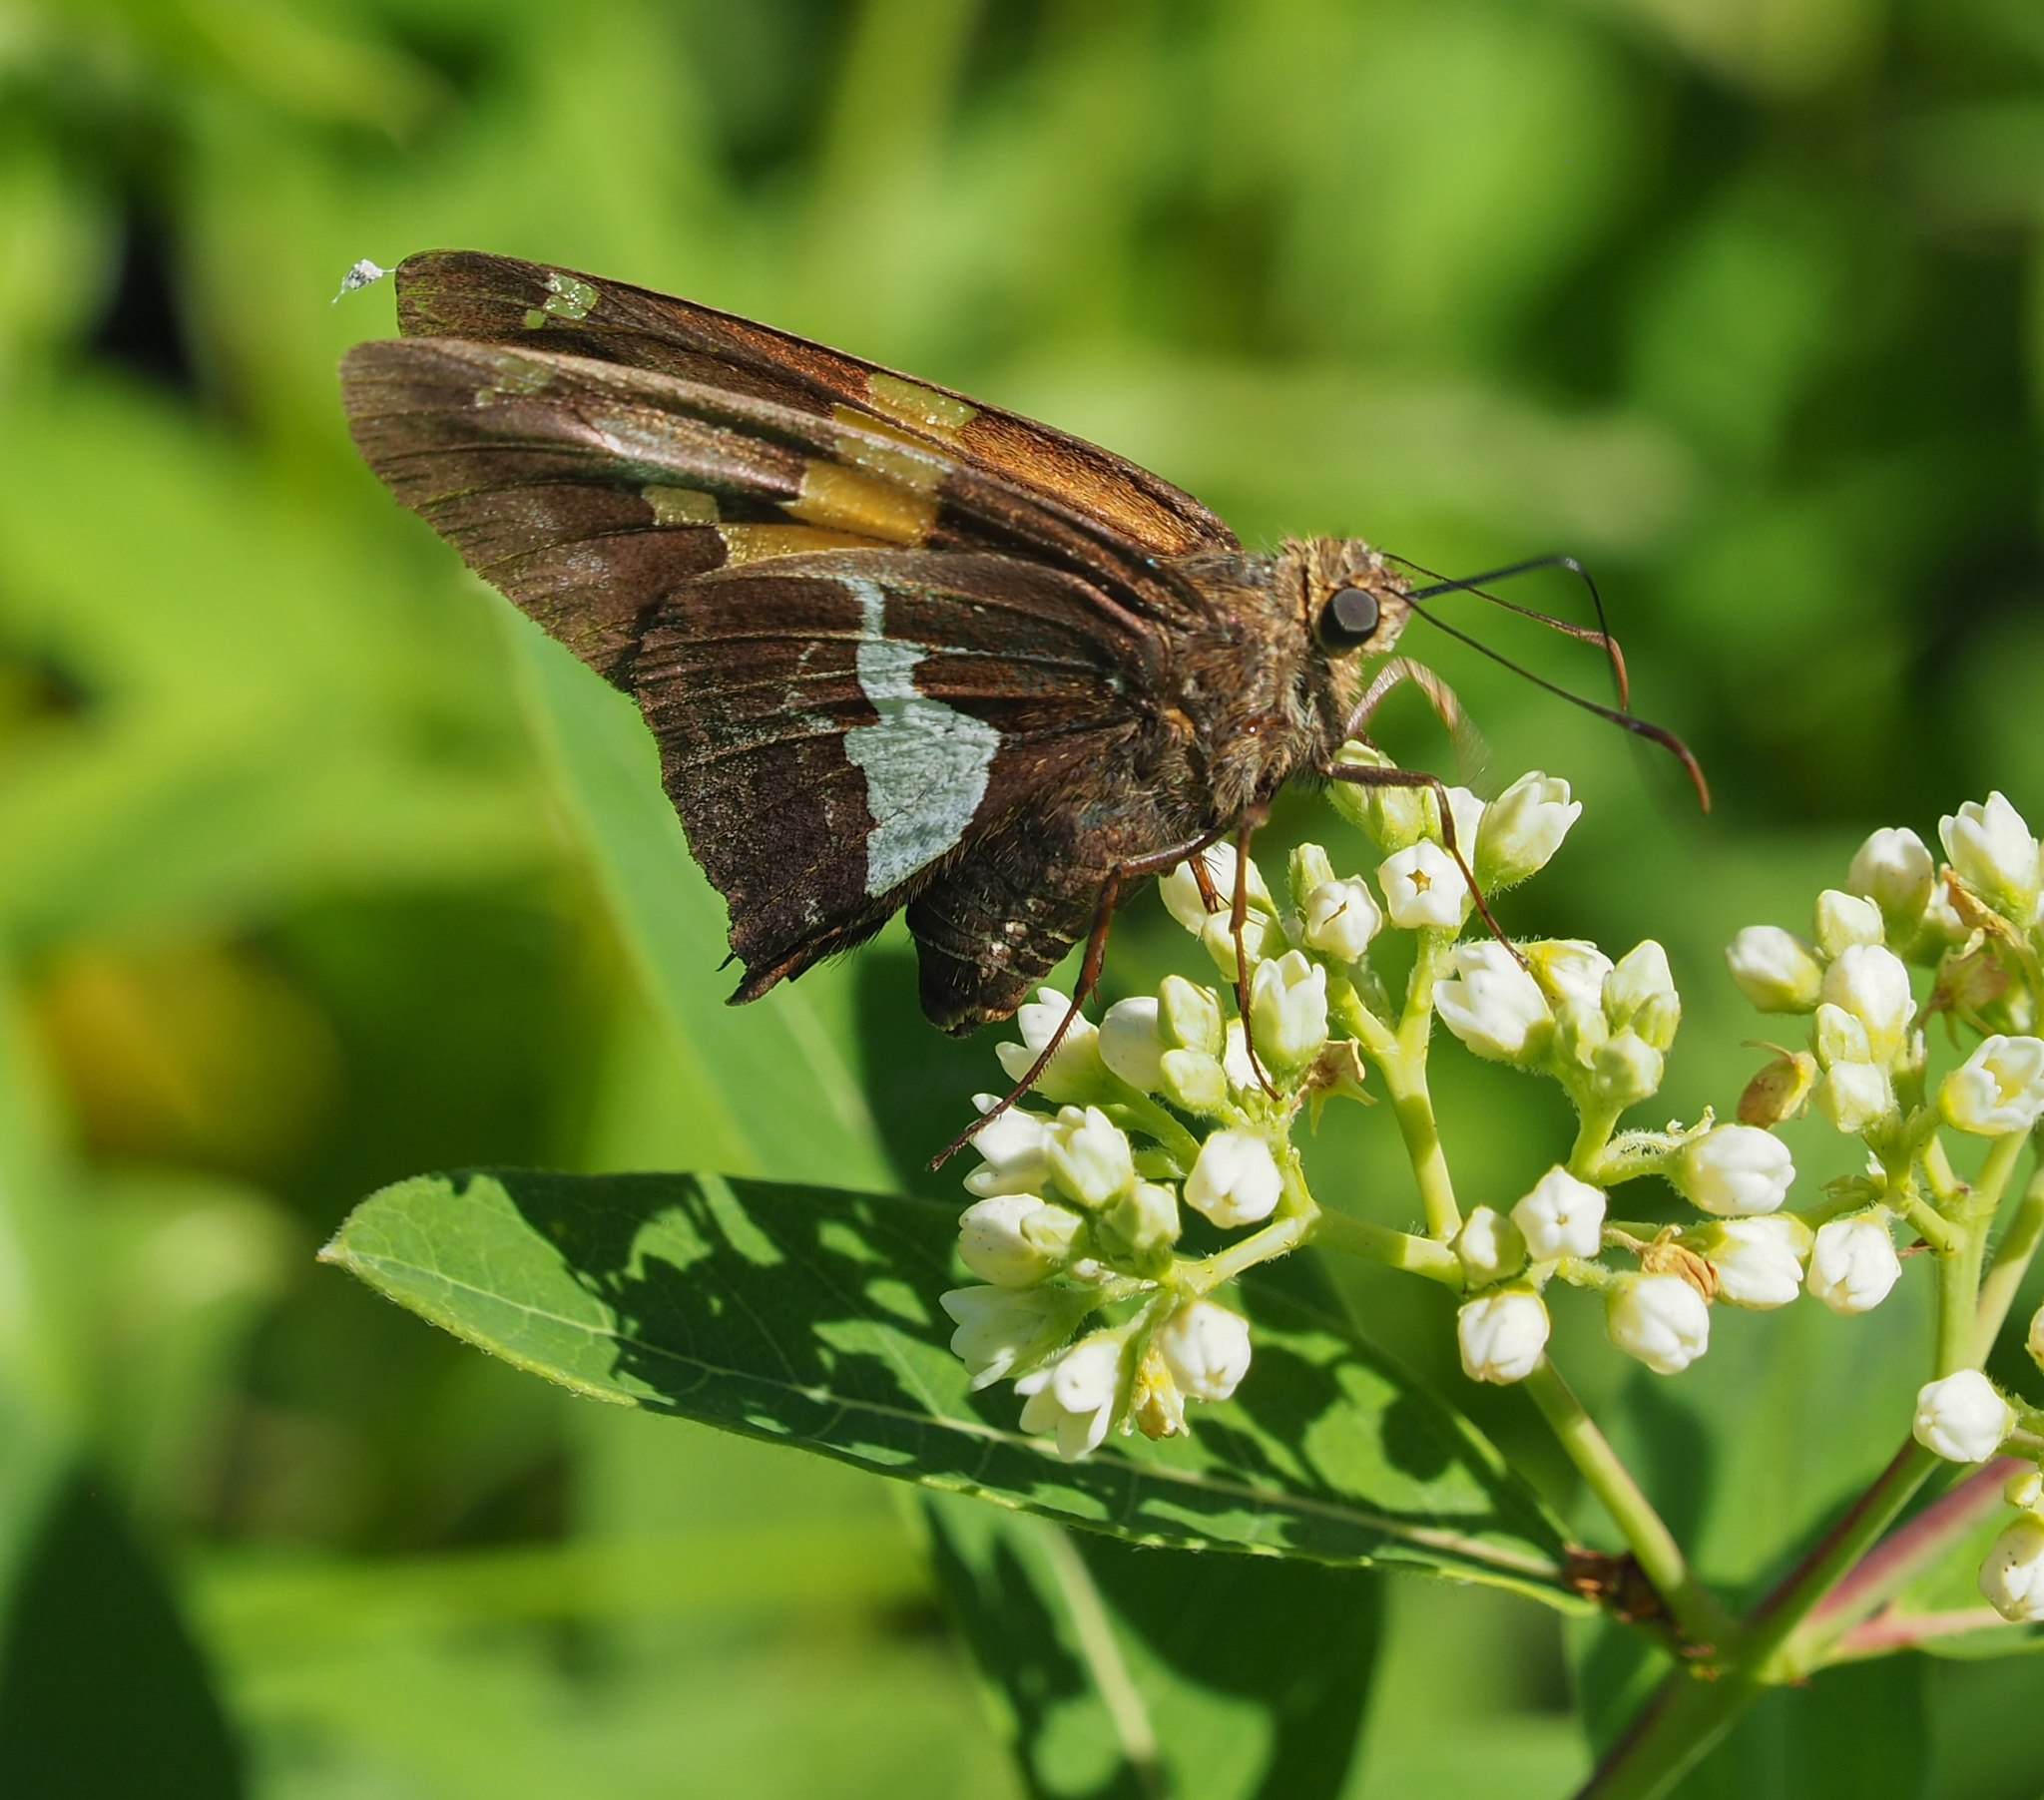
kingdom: Animalia
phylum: Arthropoda
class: Insecta
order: Lepidoptera
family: Hesperiidae
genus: Epargyreus
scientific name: Epargyreus clarus
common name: Silver-spotted skipper
